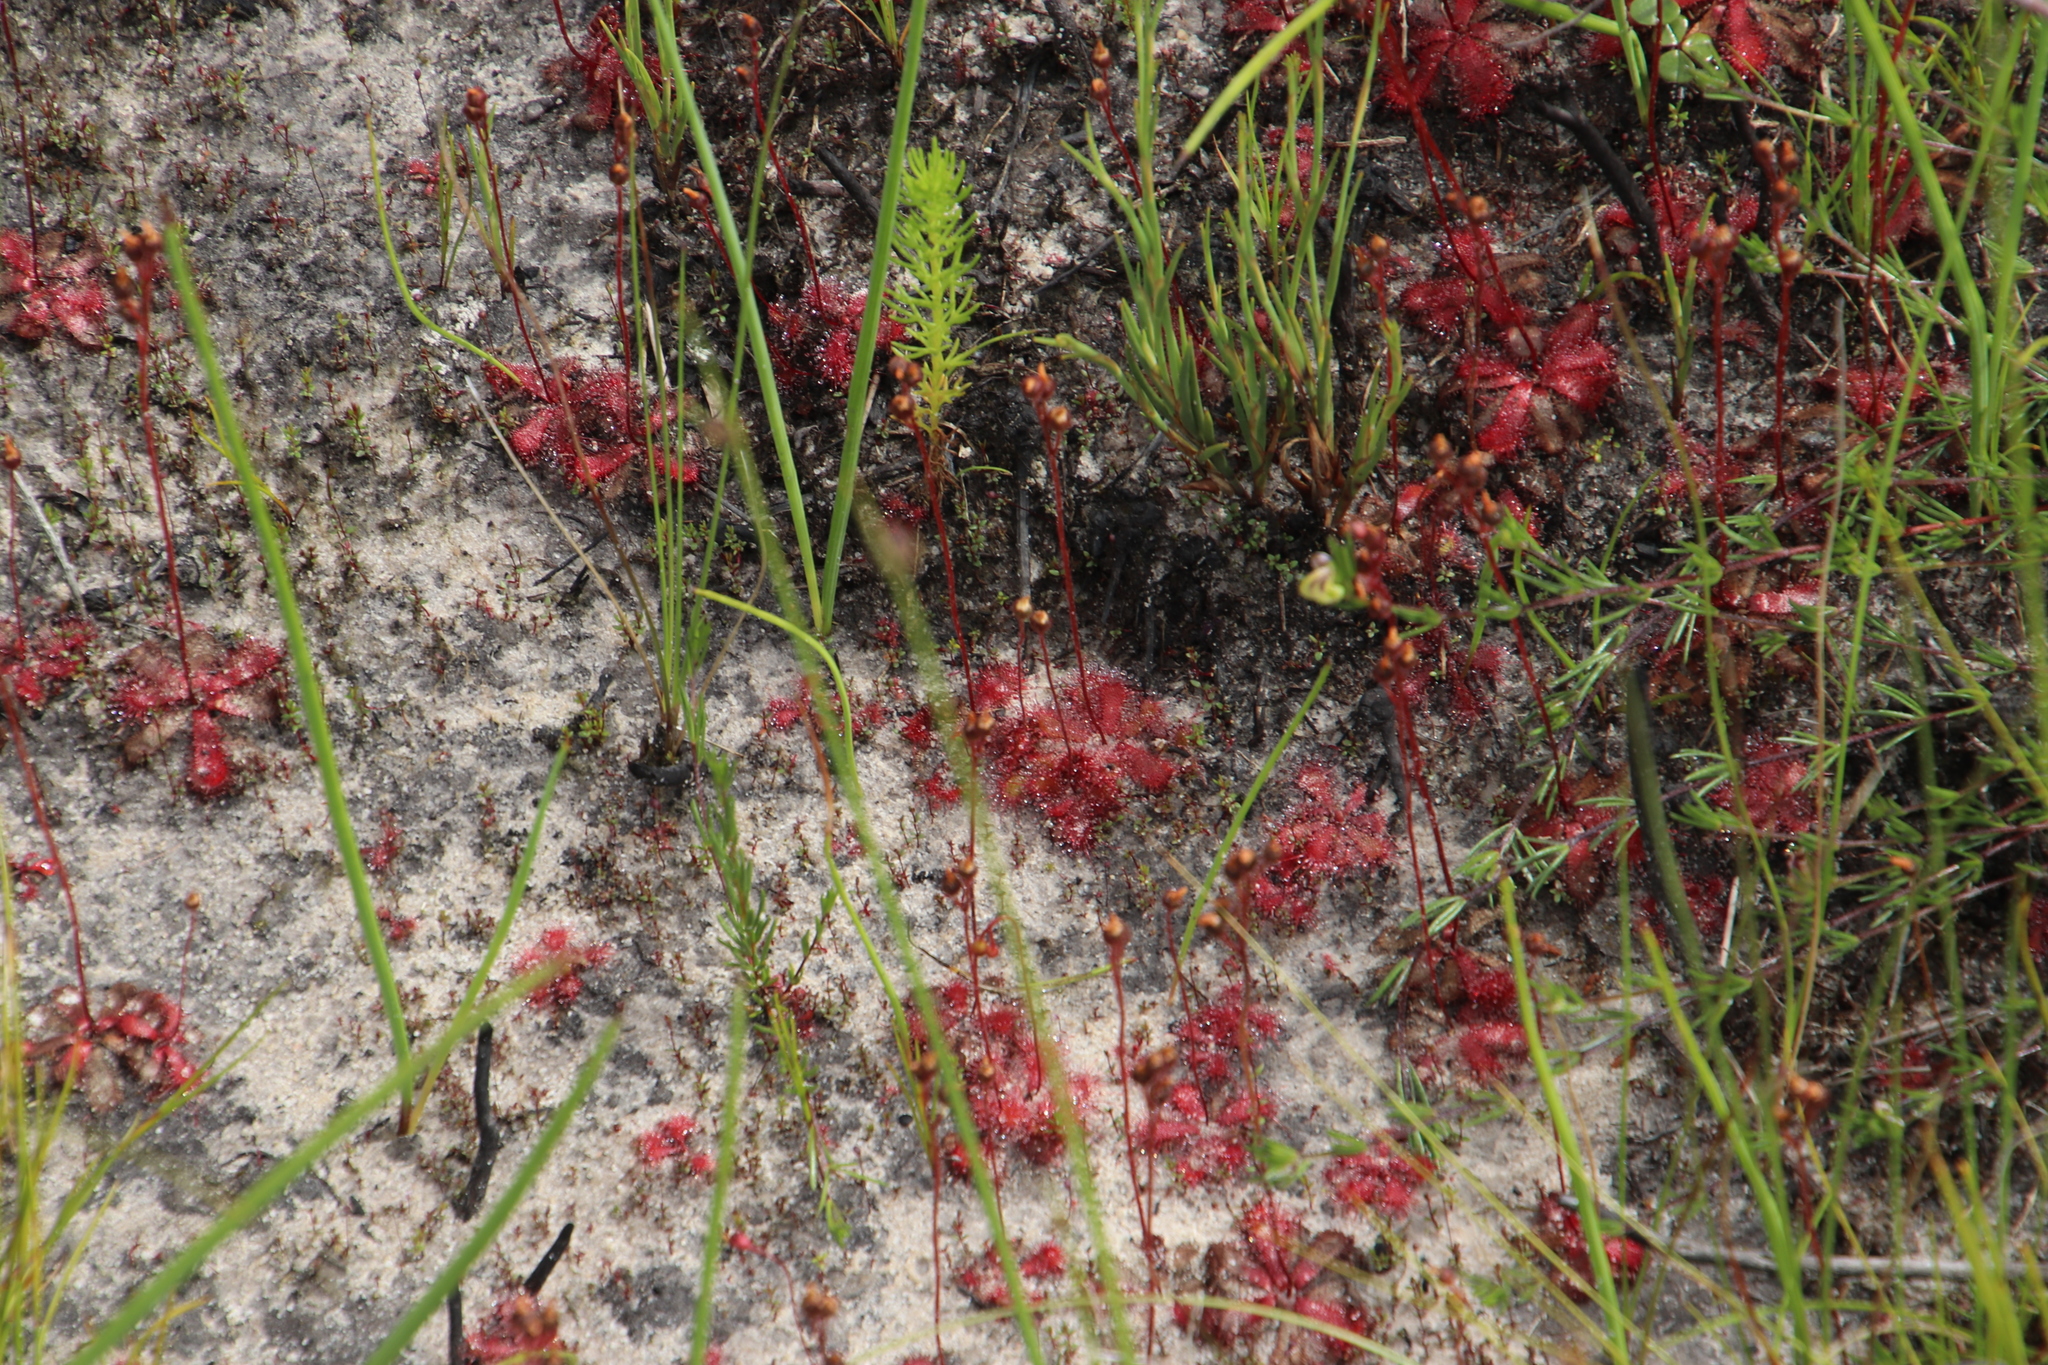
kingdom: Plantae
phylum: Tracheophyta
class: Magnoliopsida
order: Caryophyllales
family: Droseraceae
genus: Drosera
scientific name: Drosera trinervia
